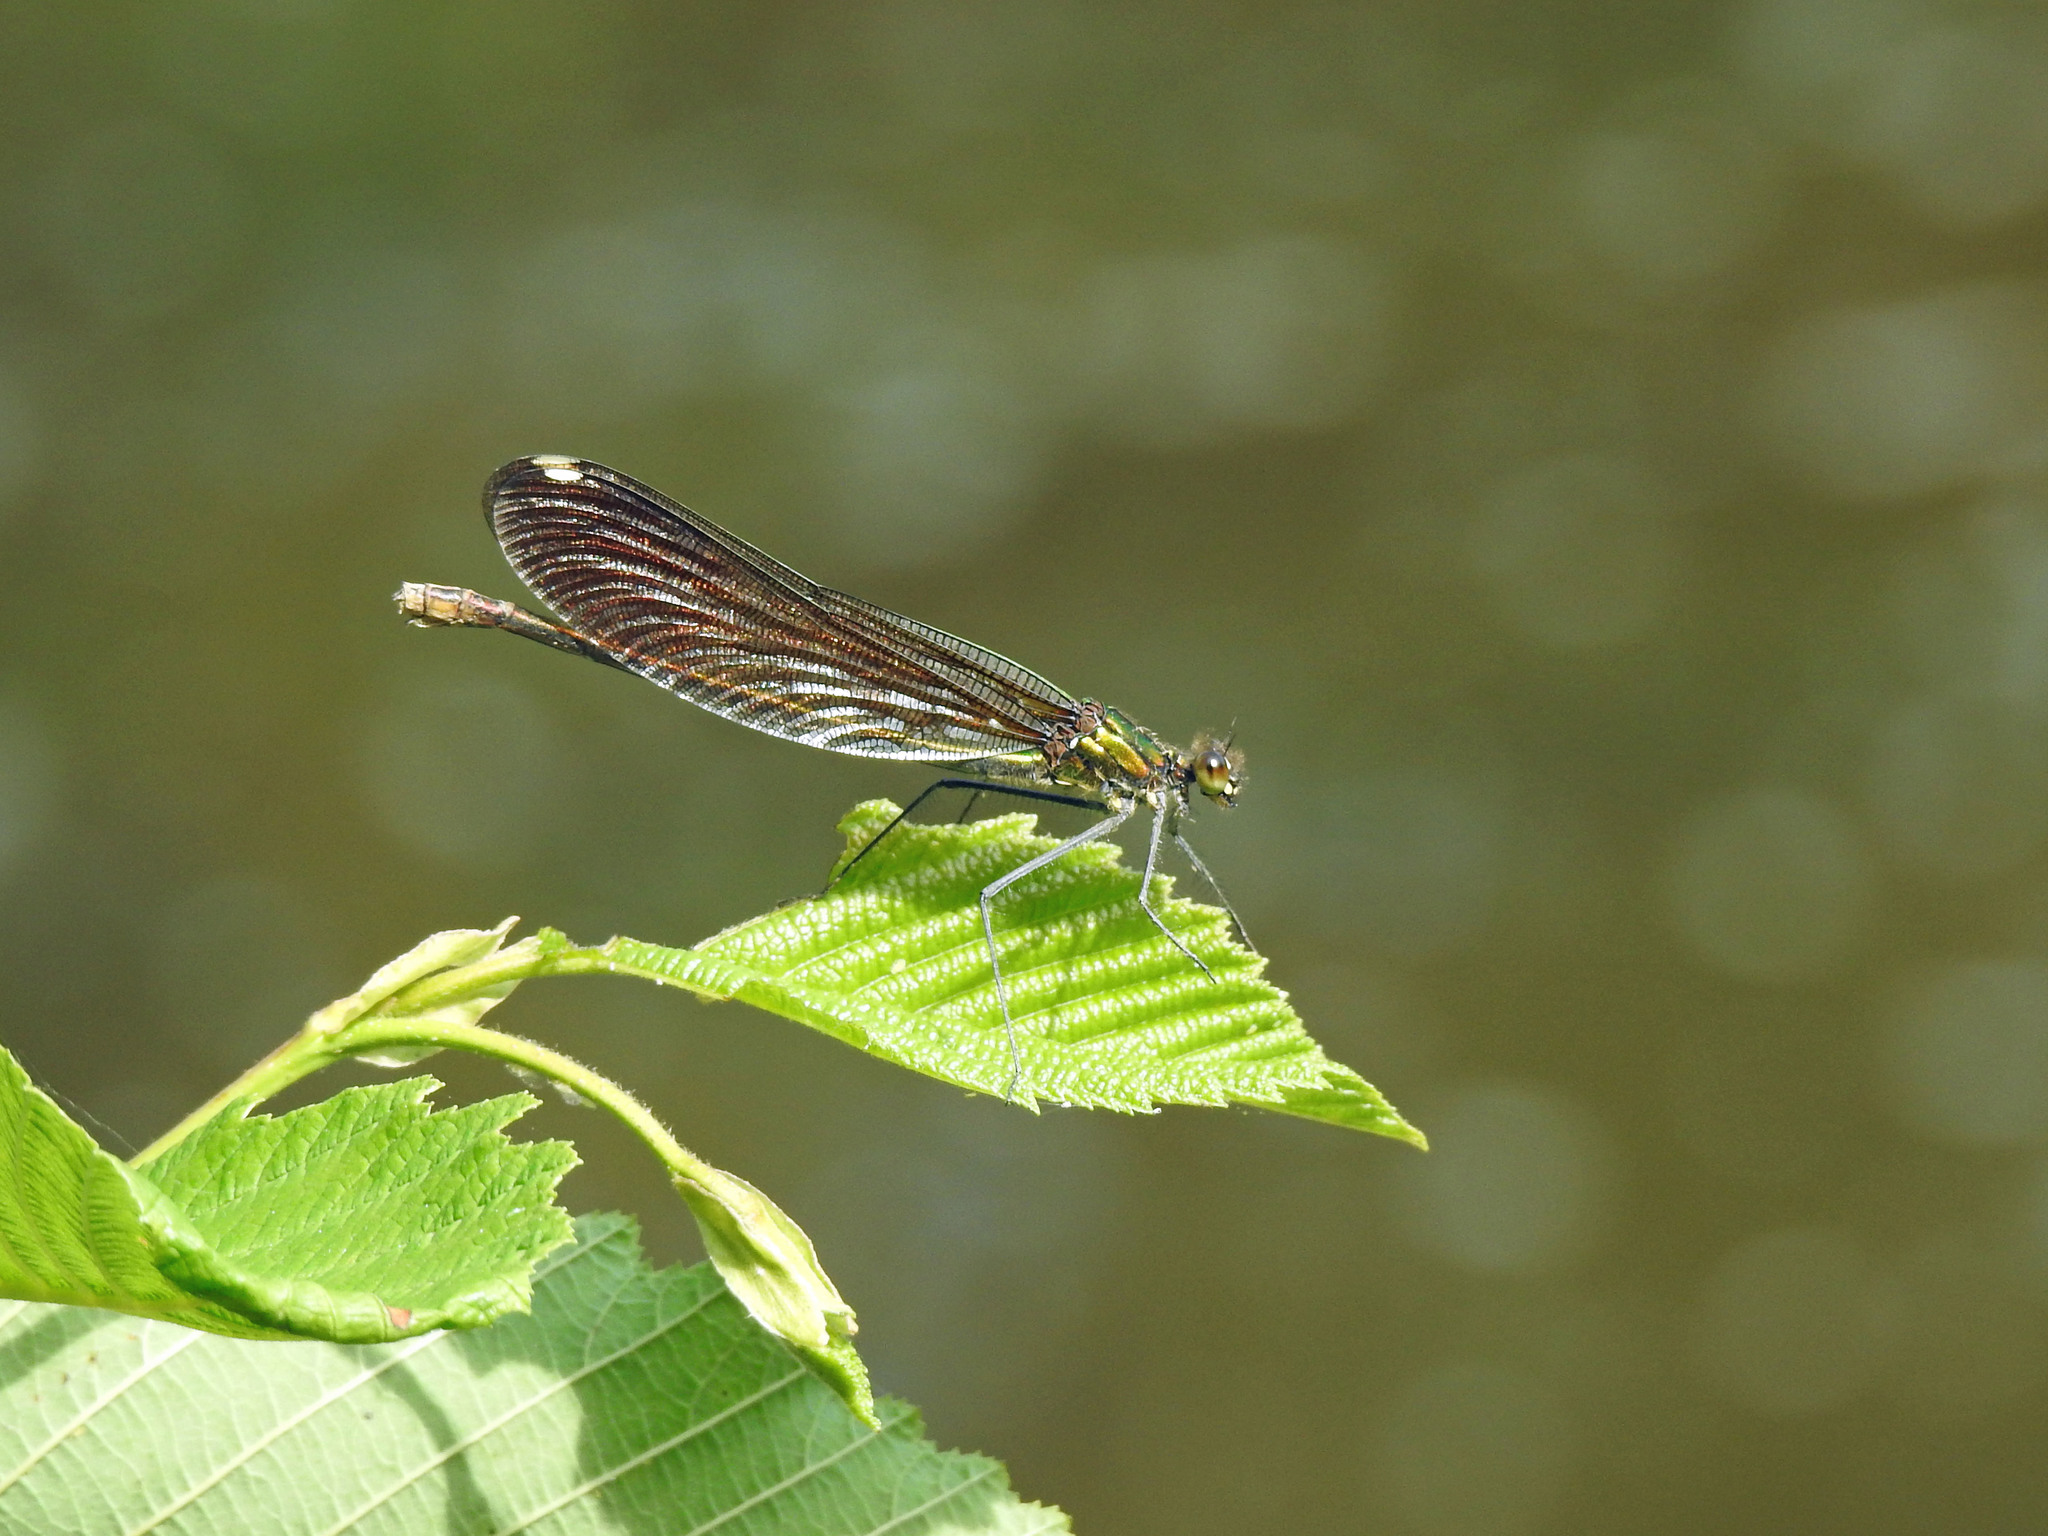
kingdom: Animalia
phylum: Arthropoda
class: Insecta
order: Odonata
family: Calopterygidae
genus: Calopteryx
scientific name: Calopteryx aequabilis
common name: River jewelwing
